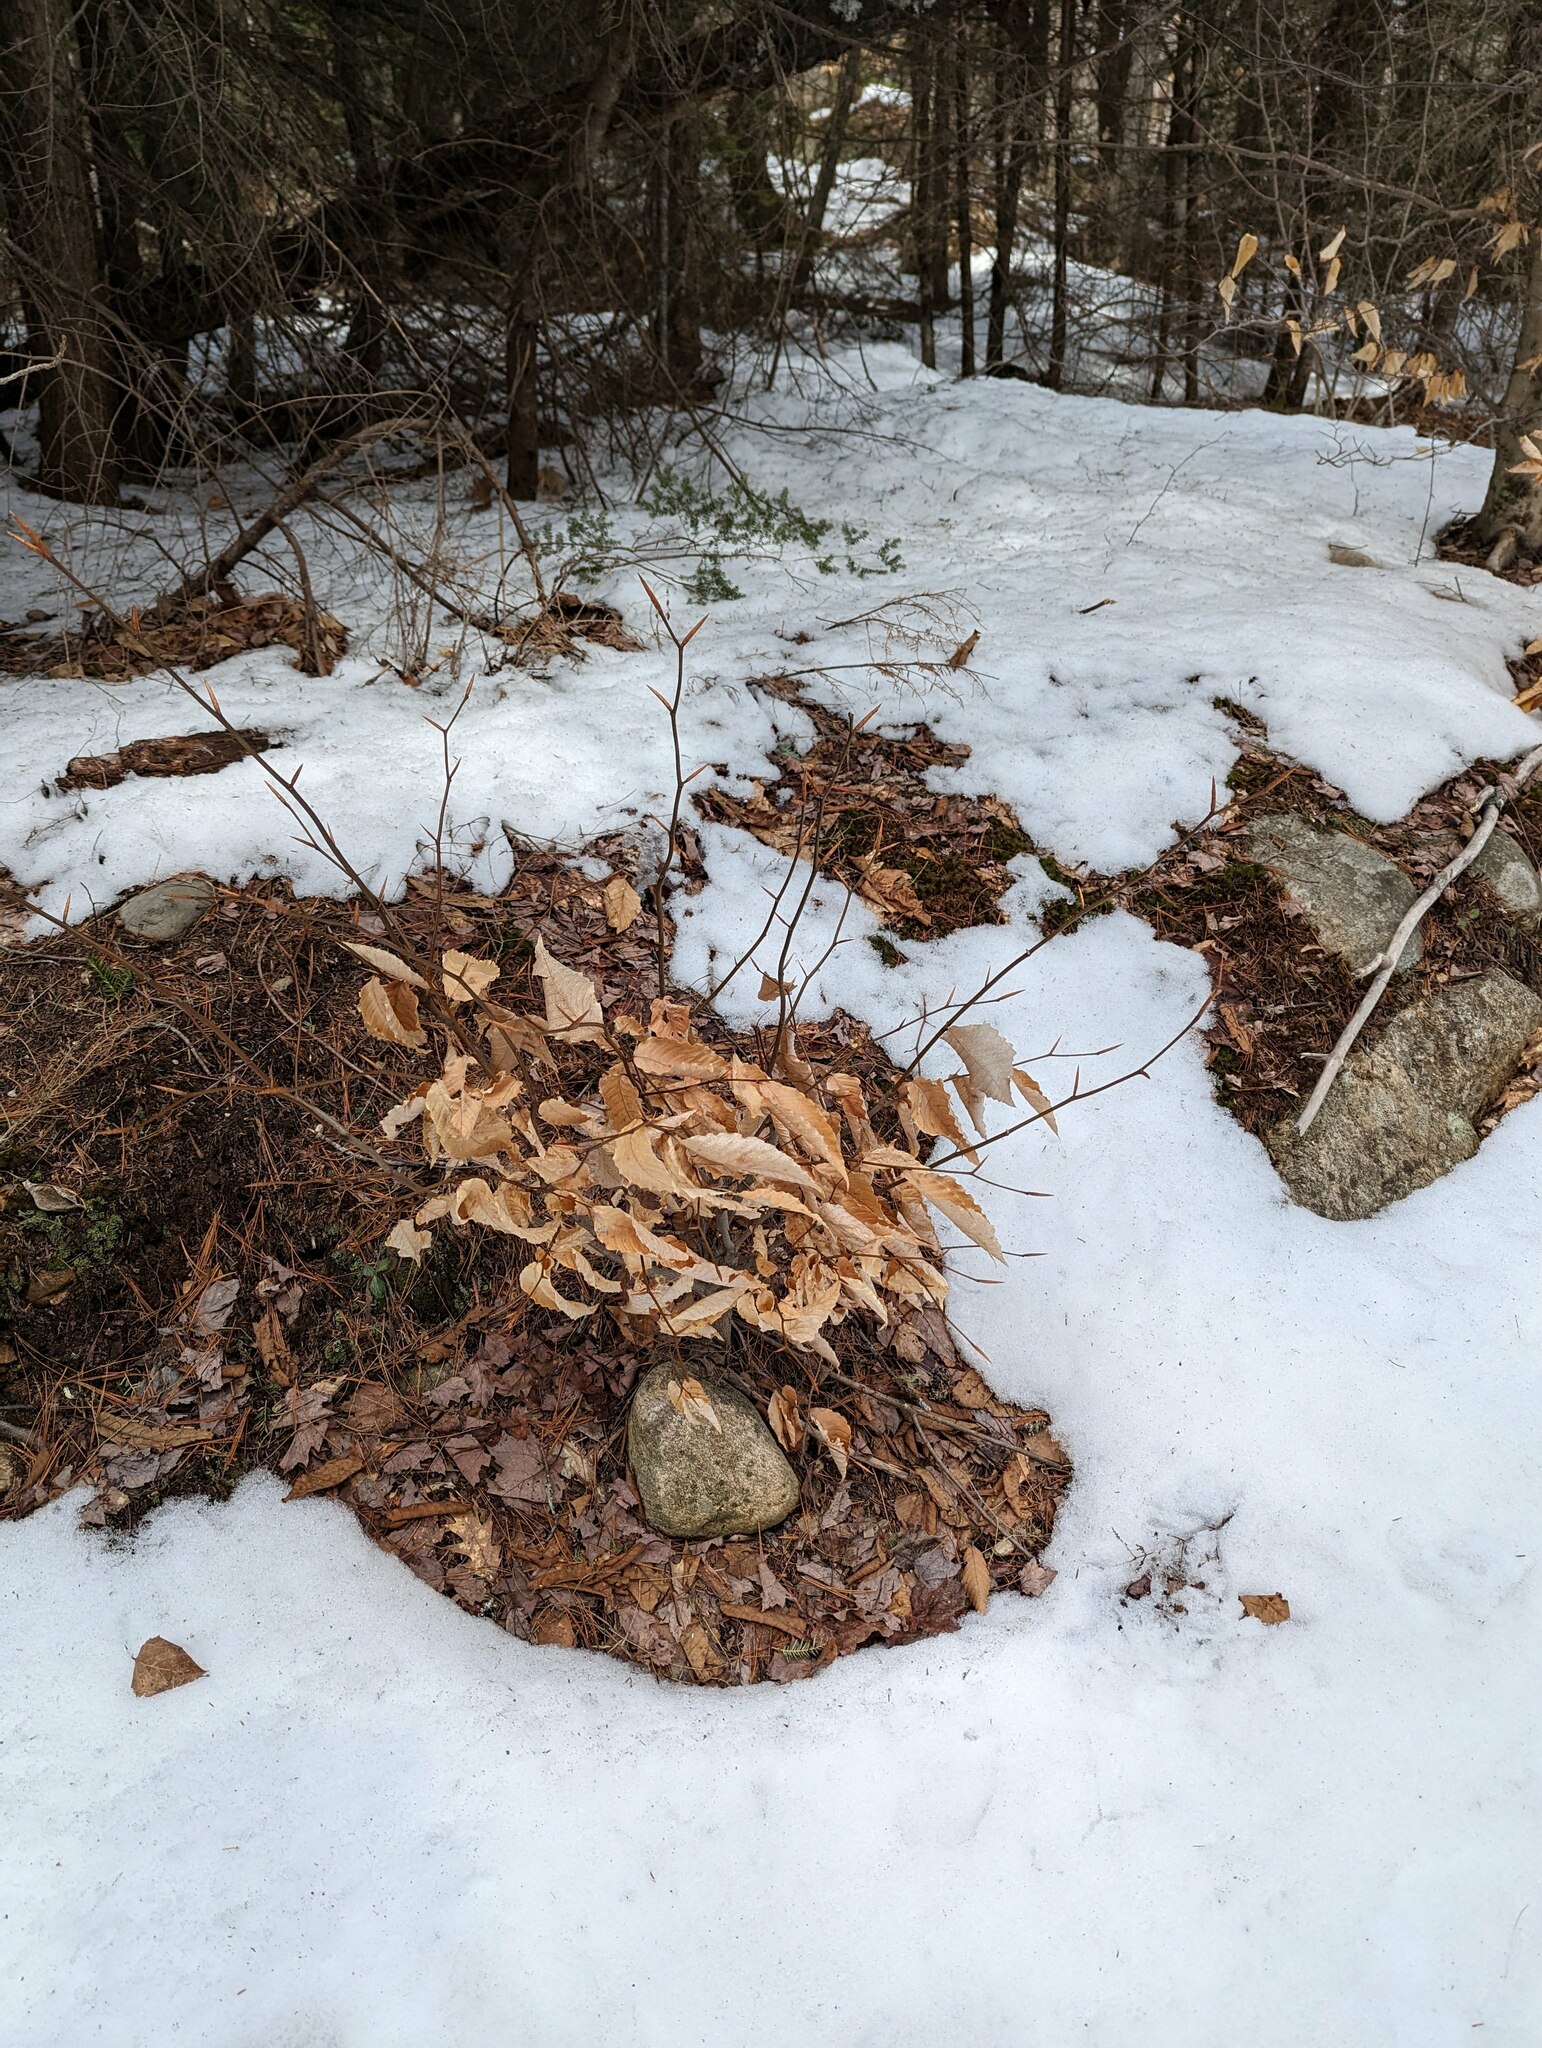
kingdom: Plantae
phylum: Tracheophyta
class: Magnoliopsida
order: Fagales
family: Fagaceae
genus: Fagus
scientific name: Fagus grandifolia
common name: American beech
